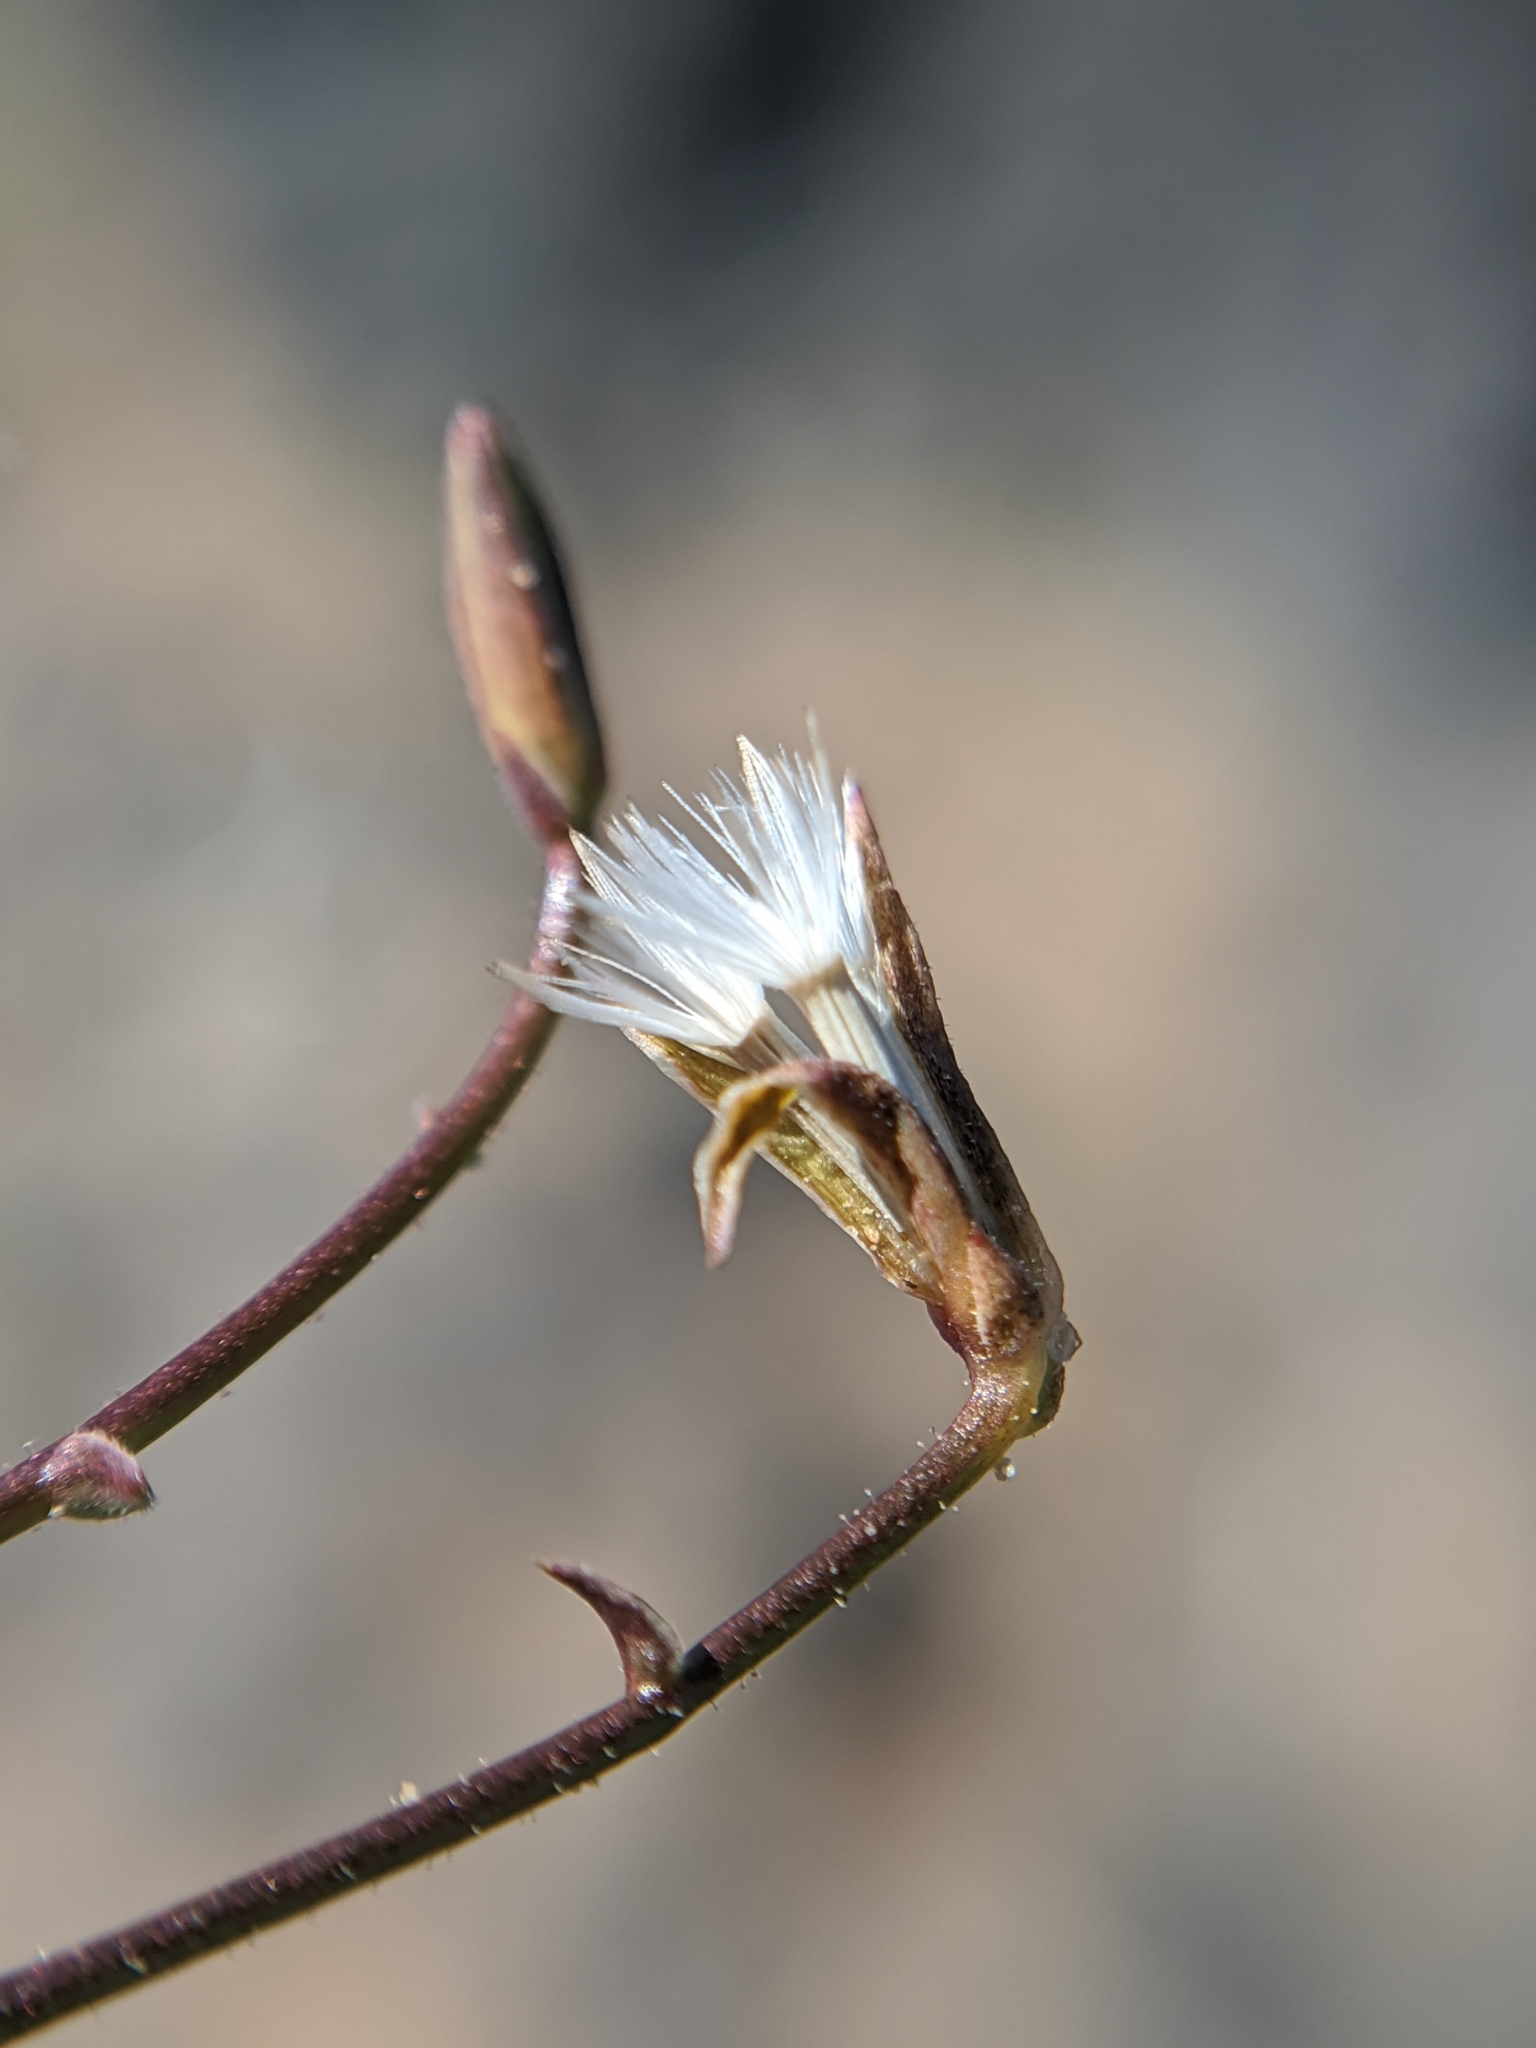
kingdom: Plantae
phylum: Tracheophyta
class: Magnoliopsida
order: Asterales
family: Asteraceae
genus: Lygodesmia
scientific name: Lygodesmia exigua
